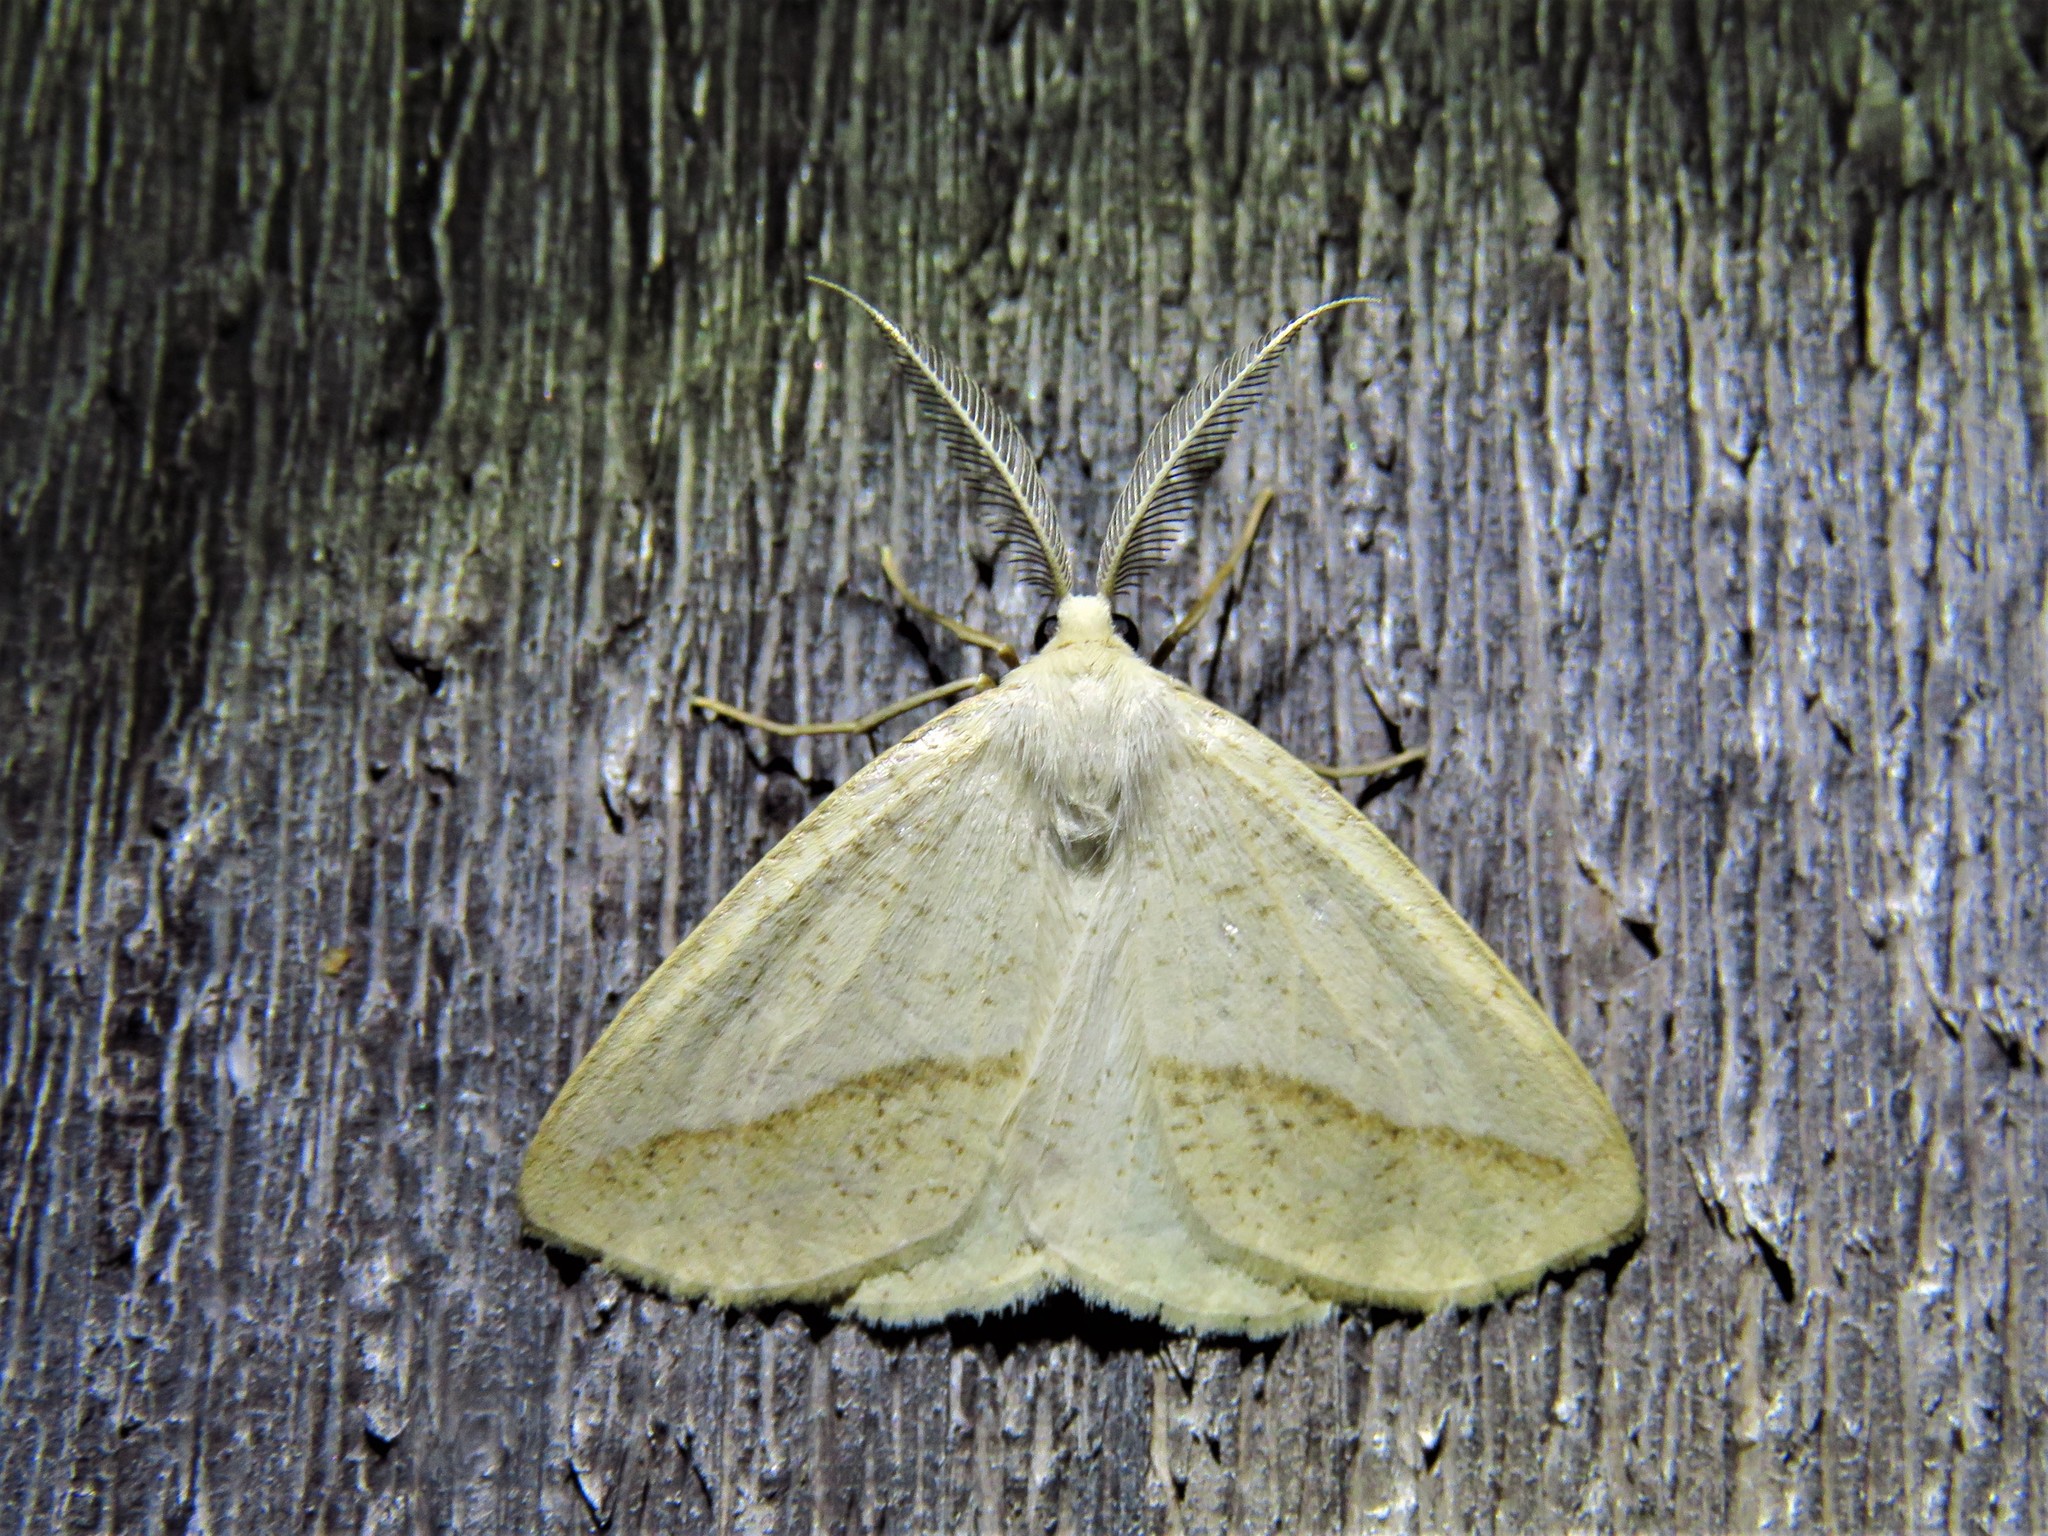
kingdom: Animalia
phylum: Arthropoda
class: Insecta
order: Lepidoptera
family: Geometridae
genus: Lychnosea
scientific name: Lychnosea intermicata
